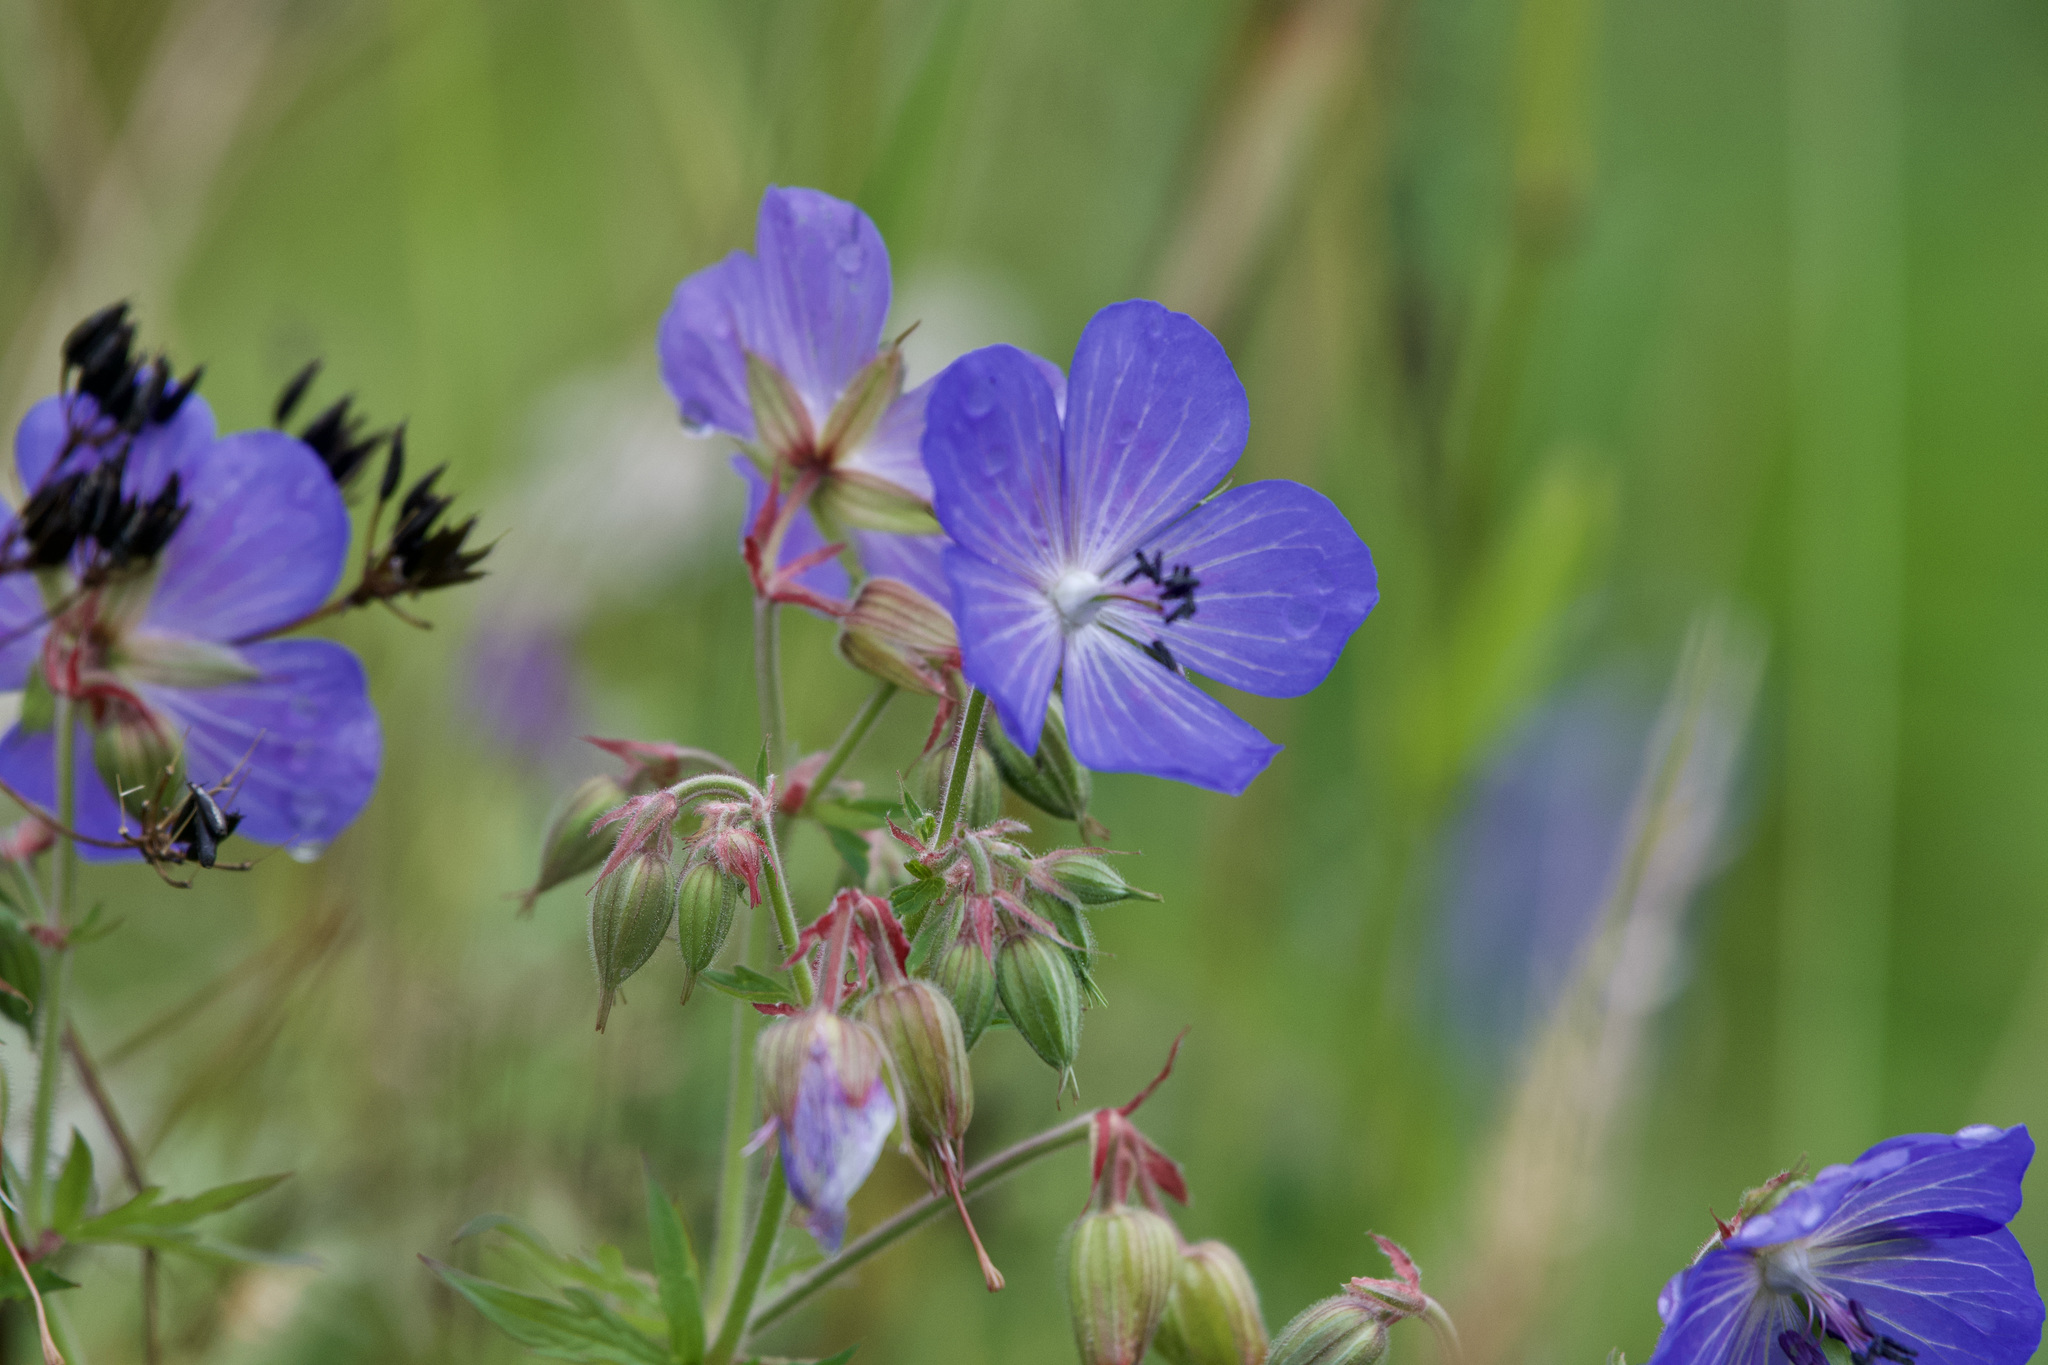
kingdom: Plantae
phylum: Tracheophyta
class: Magnoliopsida
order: Geraniales
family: Geraniaceae
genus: Geranium
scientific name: Geranium pratense
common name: Meadow crane's-bill
